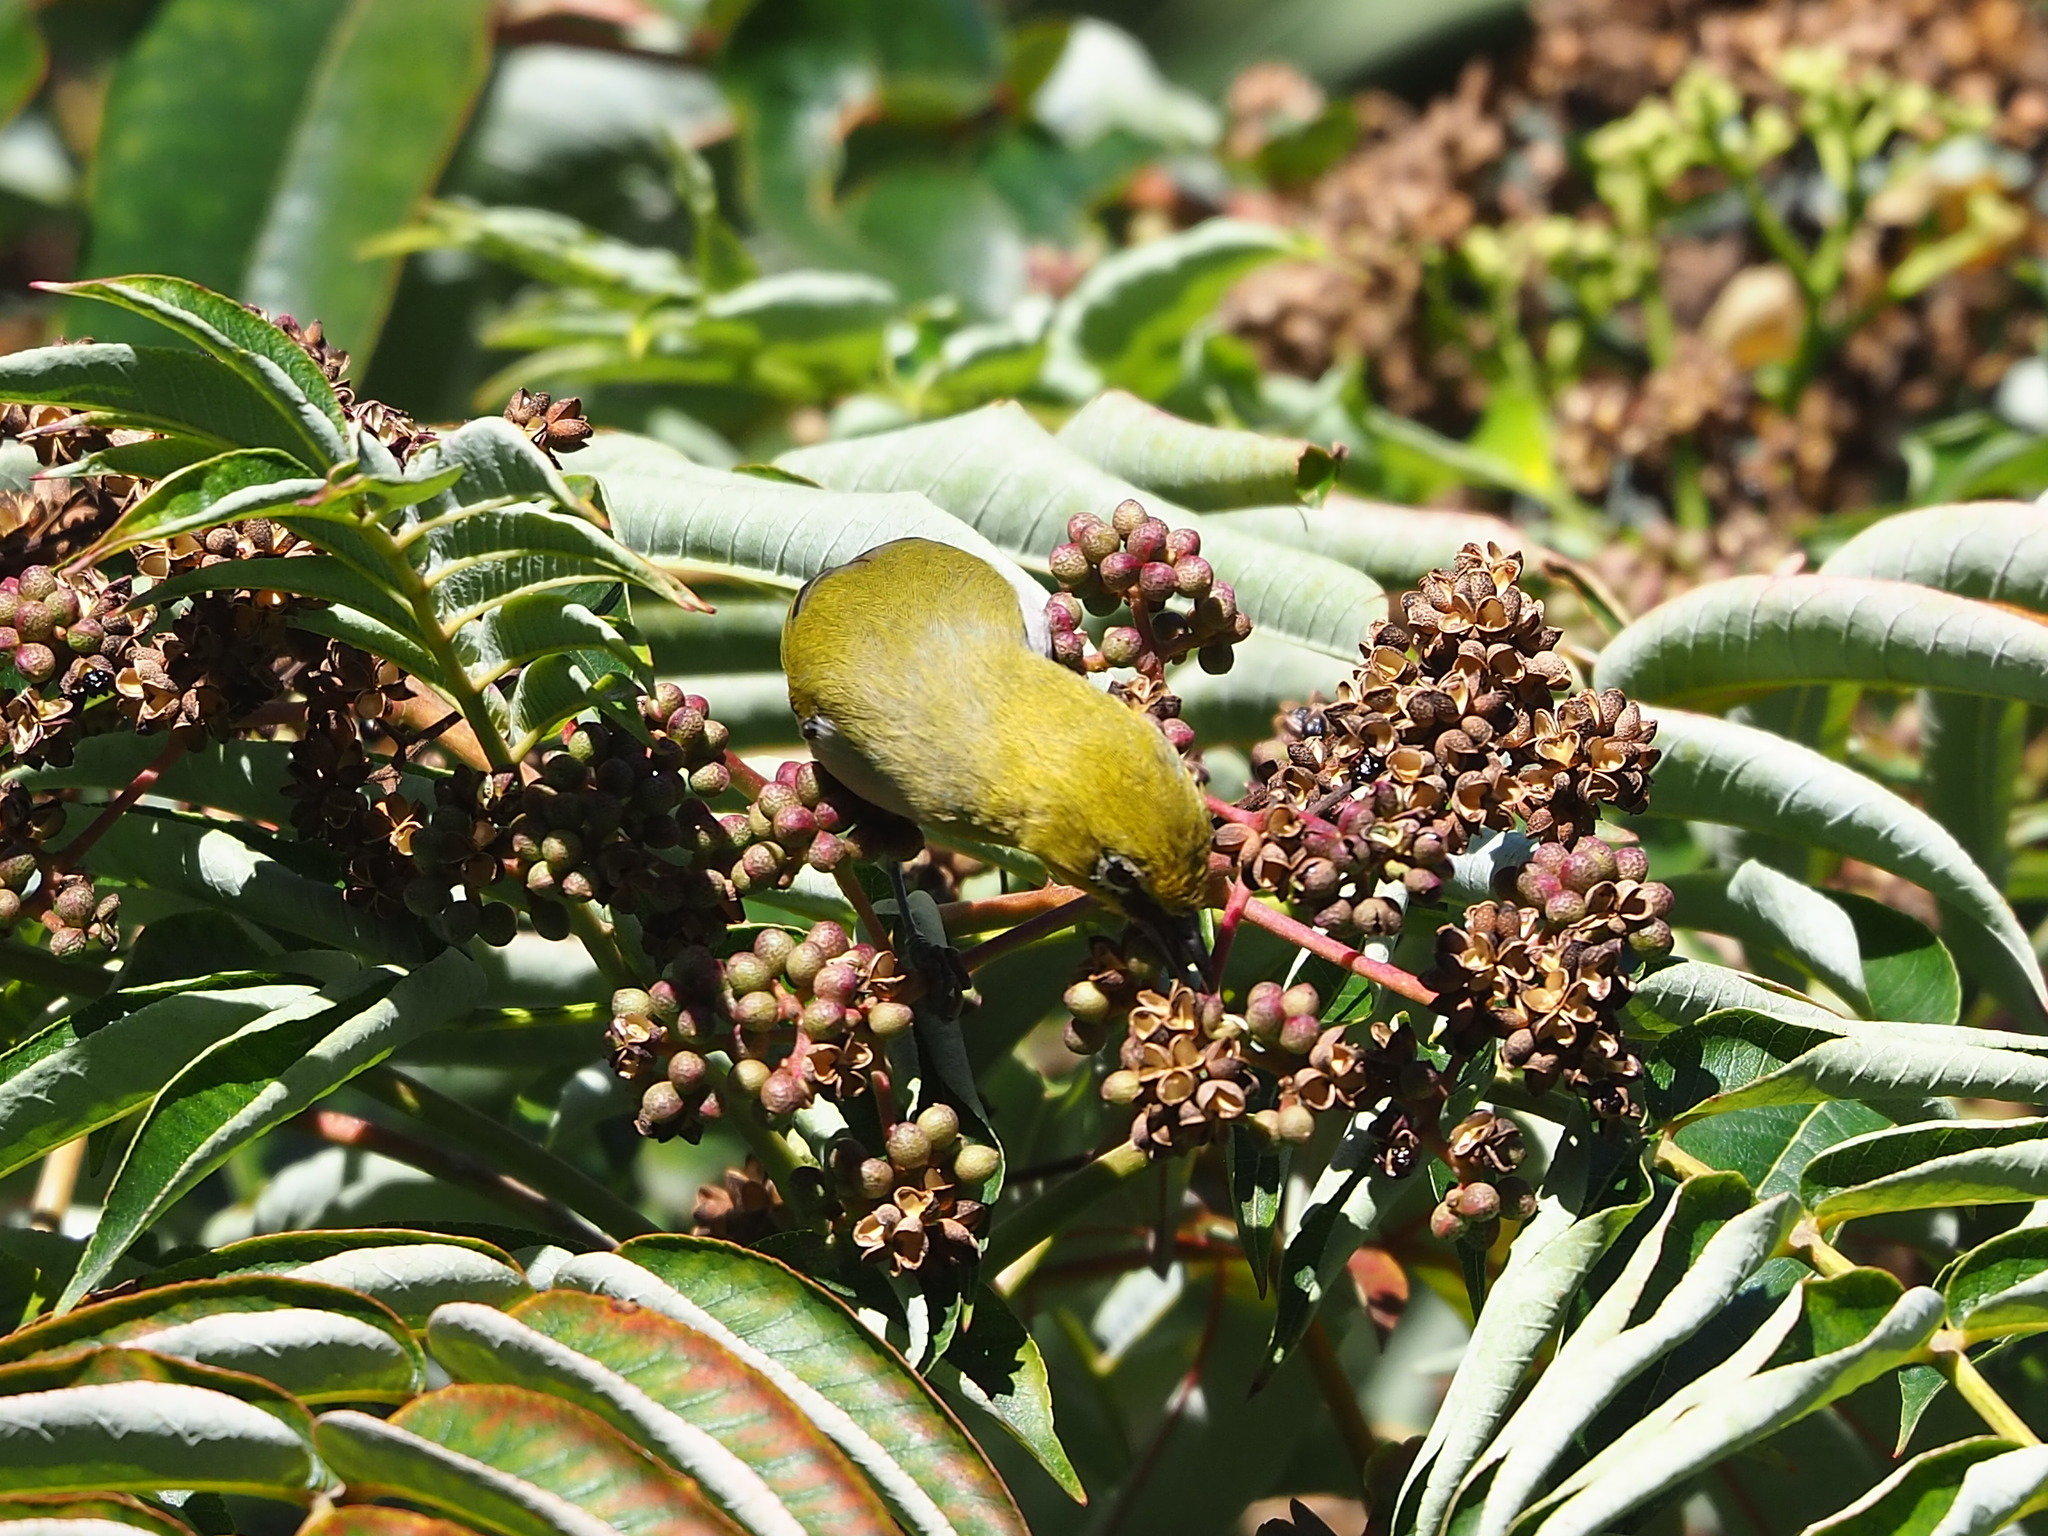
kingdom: Animalia
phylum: Chordata
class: Aves
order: Passeriformes
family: Zosteropidae
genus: Zosterops
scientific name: Zosterops simplex
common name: Swinhoe's white-eye
